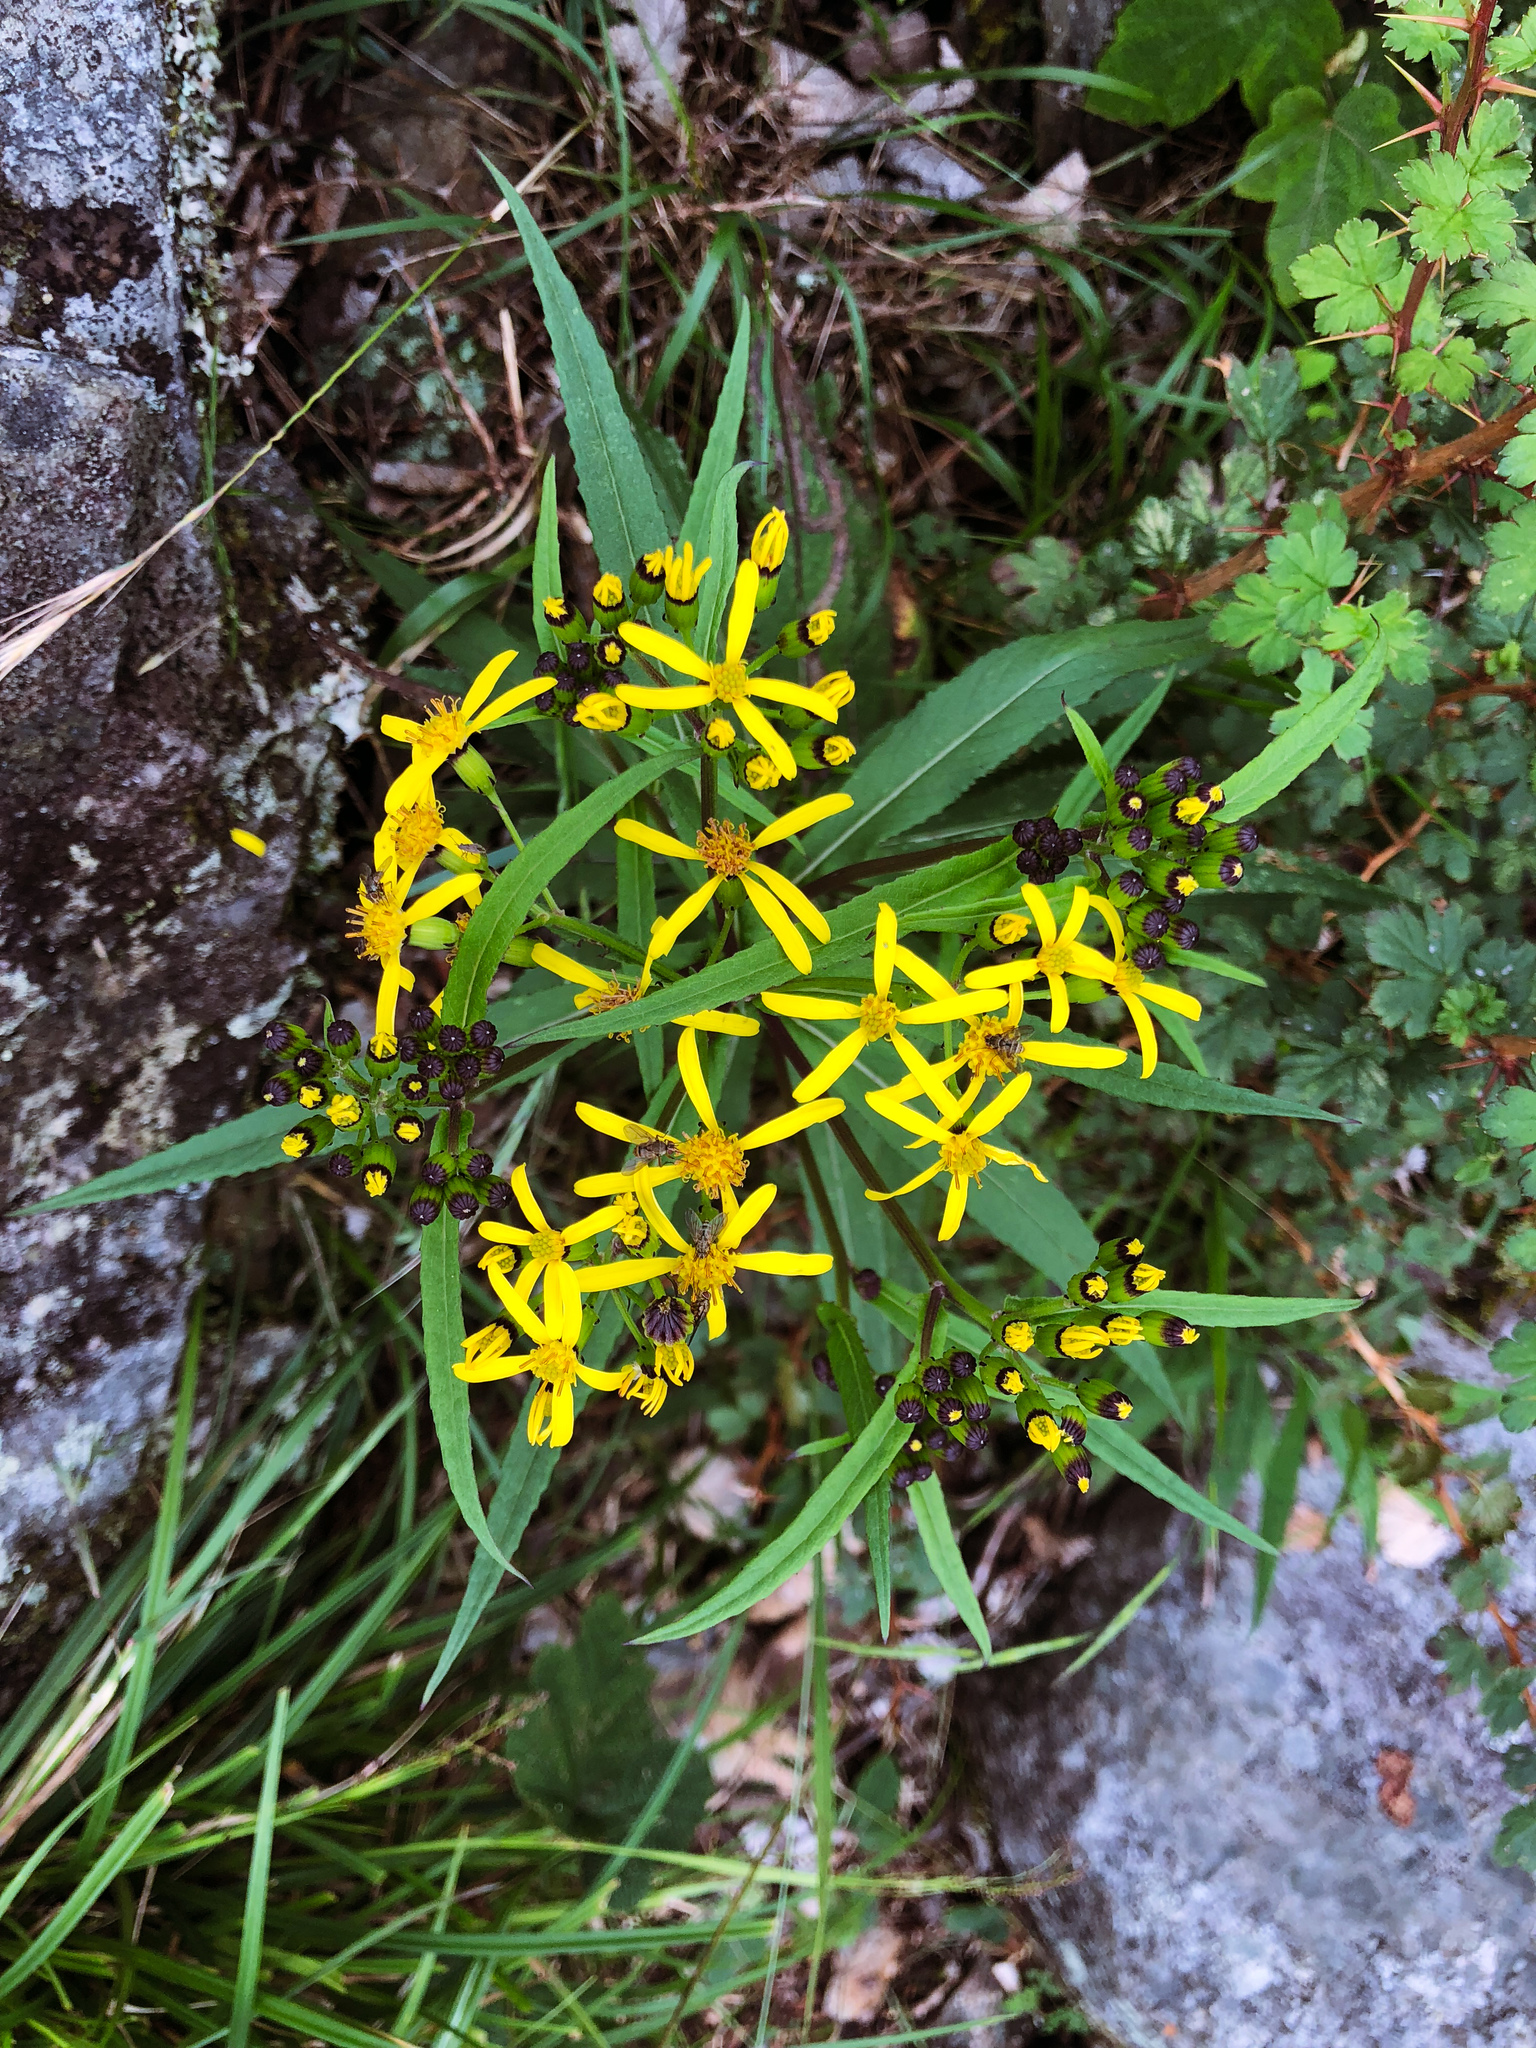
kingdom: Plantae
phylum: Tracheophyta
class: Magnoliopsida
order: Asterales
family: Asteraceae
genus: Jacobaea
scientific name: Jacobaea morrisonensis
